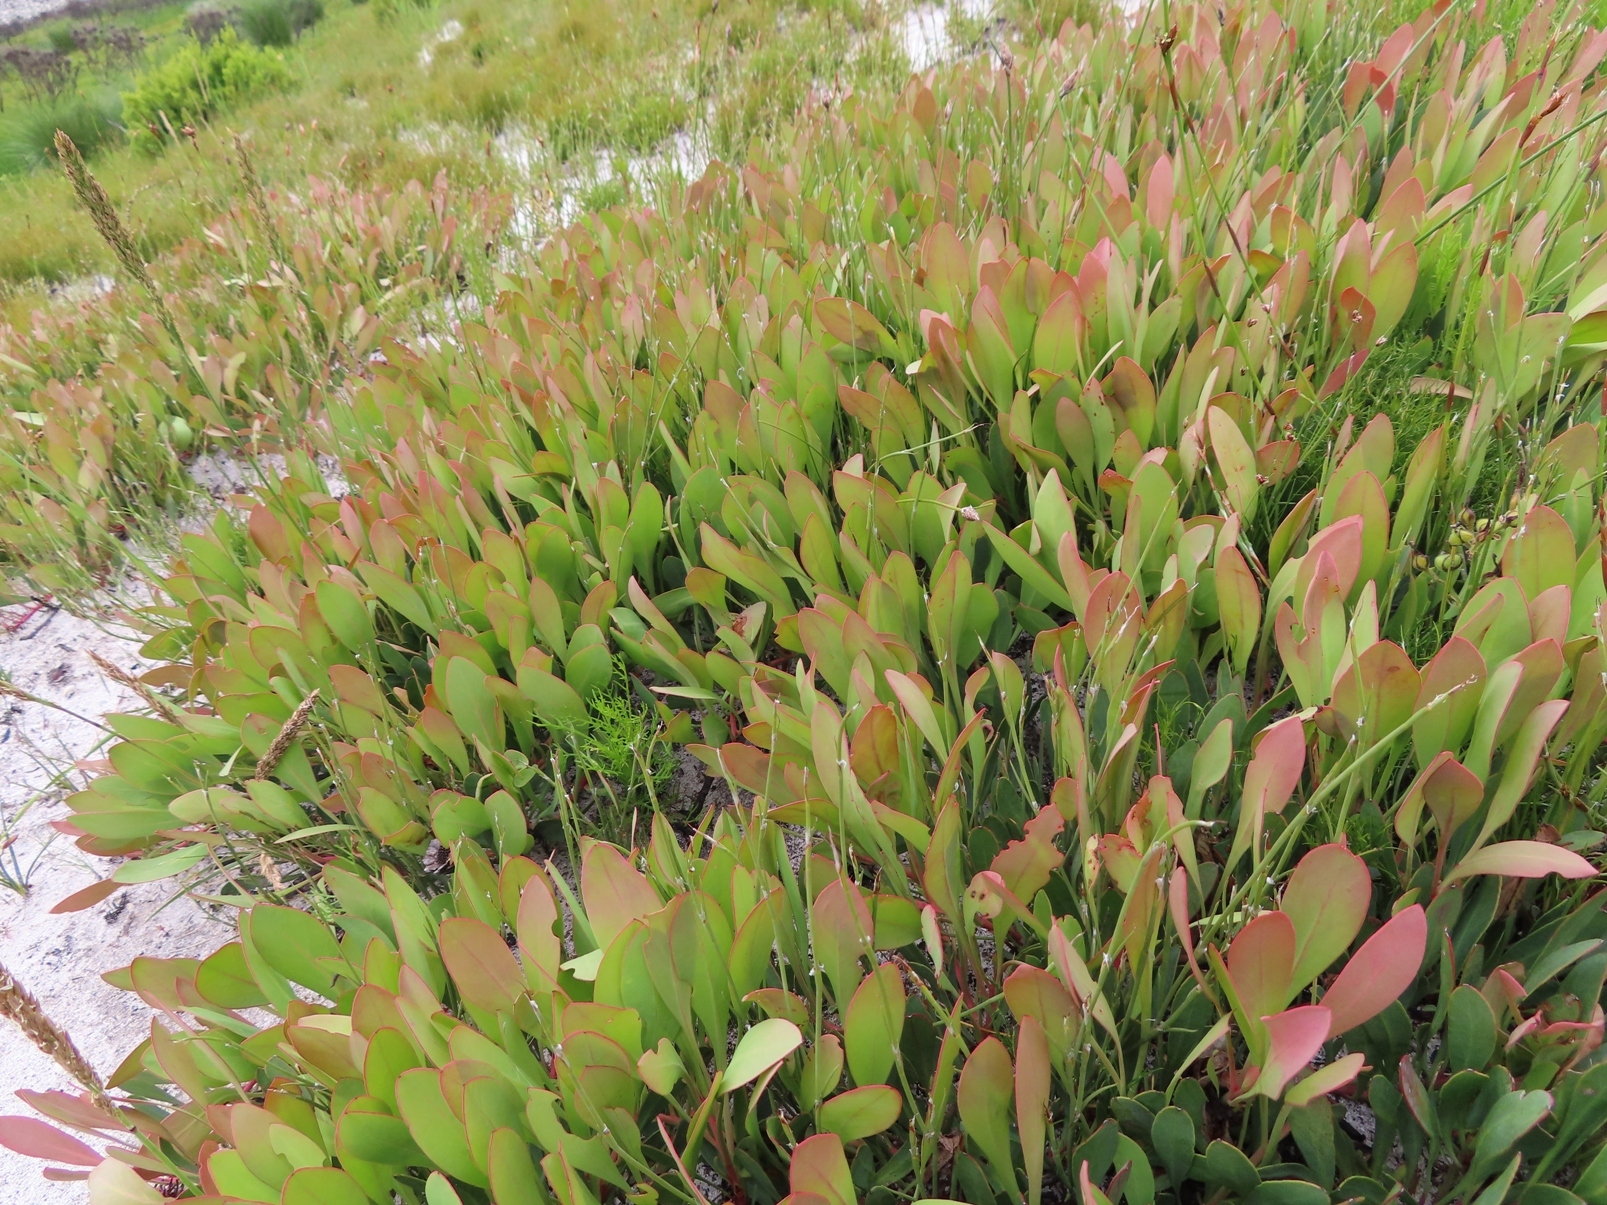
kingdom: Plantae
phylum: Tracheophyta
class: Magnoliopsida
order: Proteales
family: Proteaceae
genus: Protea
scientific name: Protea acaulos
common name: Common ground sugarbush
